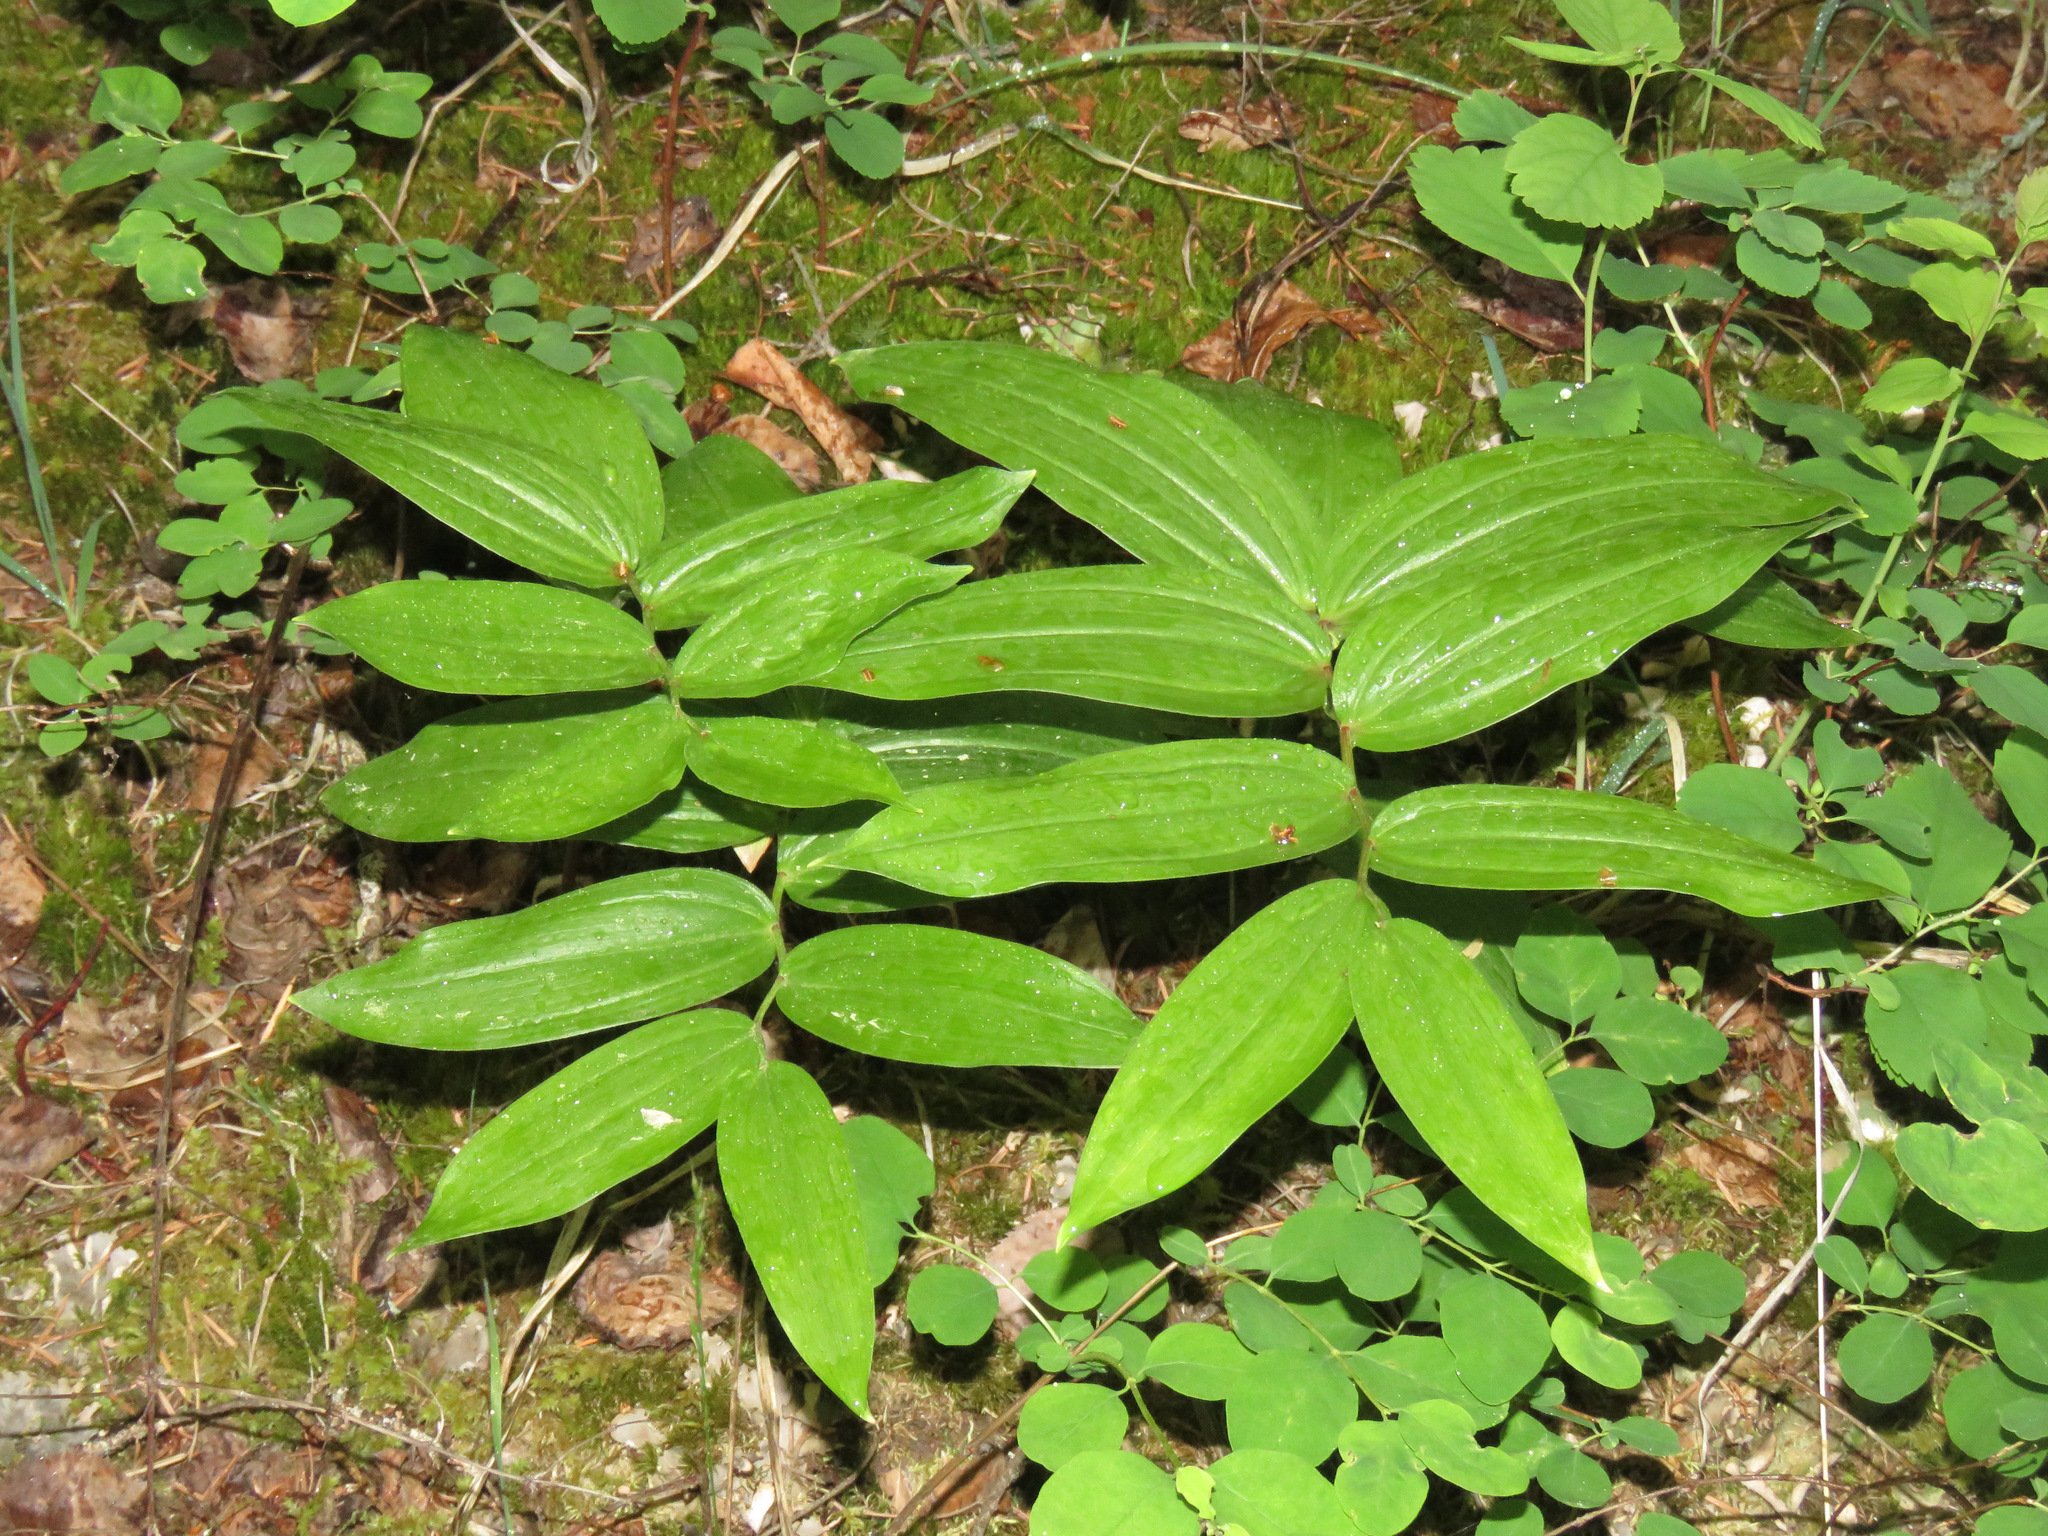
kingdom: Plantae
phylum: Tracheophyta
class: Liliopsida
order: Asparagales
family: Asparagaceae
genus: Maianthemum
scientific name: Maianthemum racemosum
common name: False spikenard
